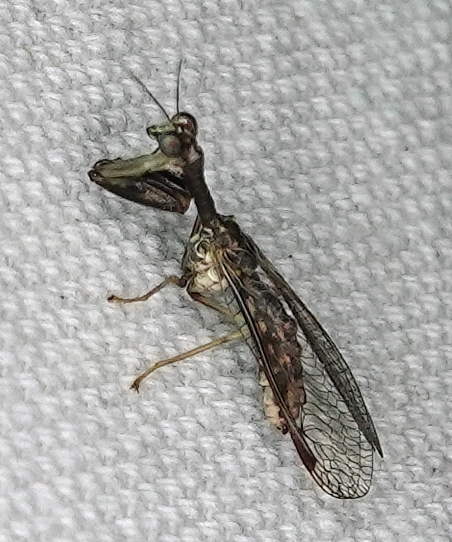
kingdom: Animalia
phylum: Arthropoda
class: Insecta
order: Neuroptera
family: Mantispidae
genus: Dicromantispa
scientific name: Dicromantispa sayi
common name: Say's mantidfly
